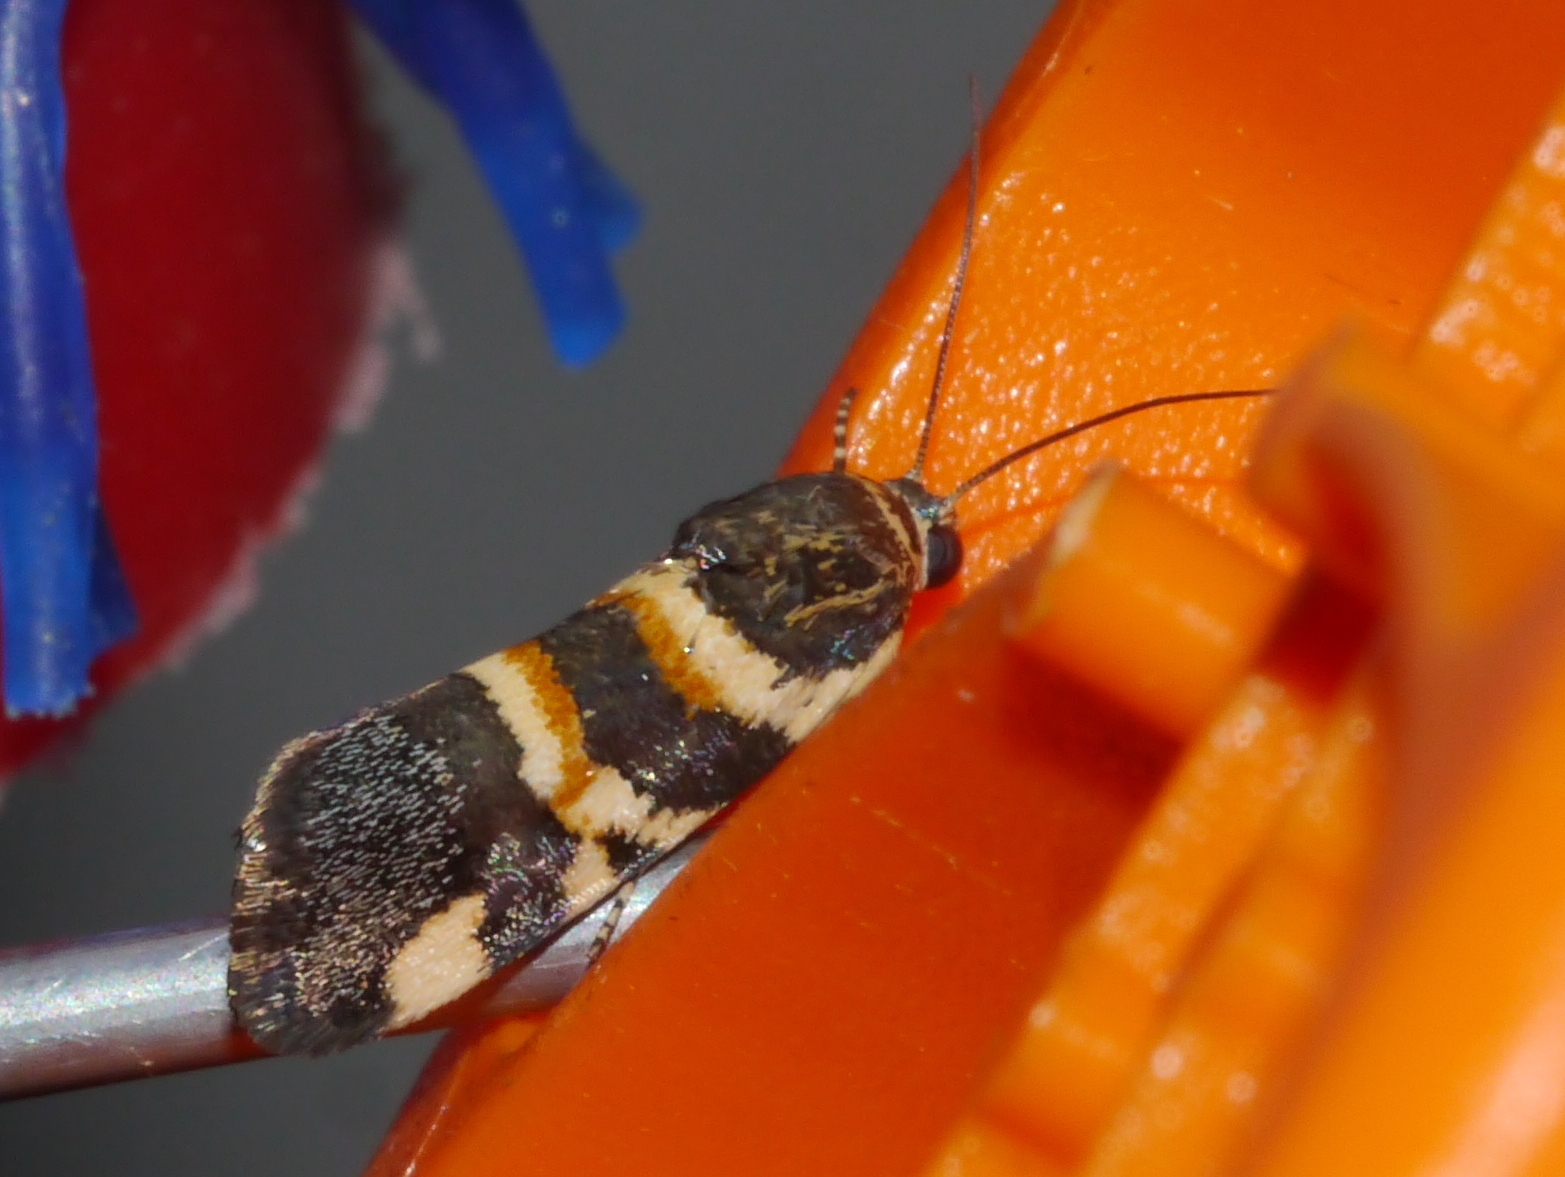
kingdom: Animalia
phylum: Arthropoda
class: Insecta
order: Lepidoptera
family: Noctuidae
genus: Spragueia
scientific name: Spragueia funeralis
